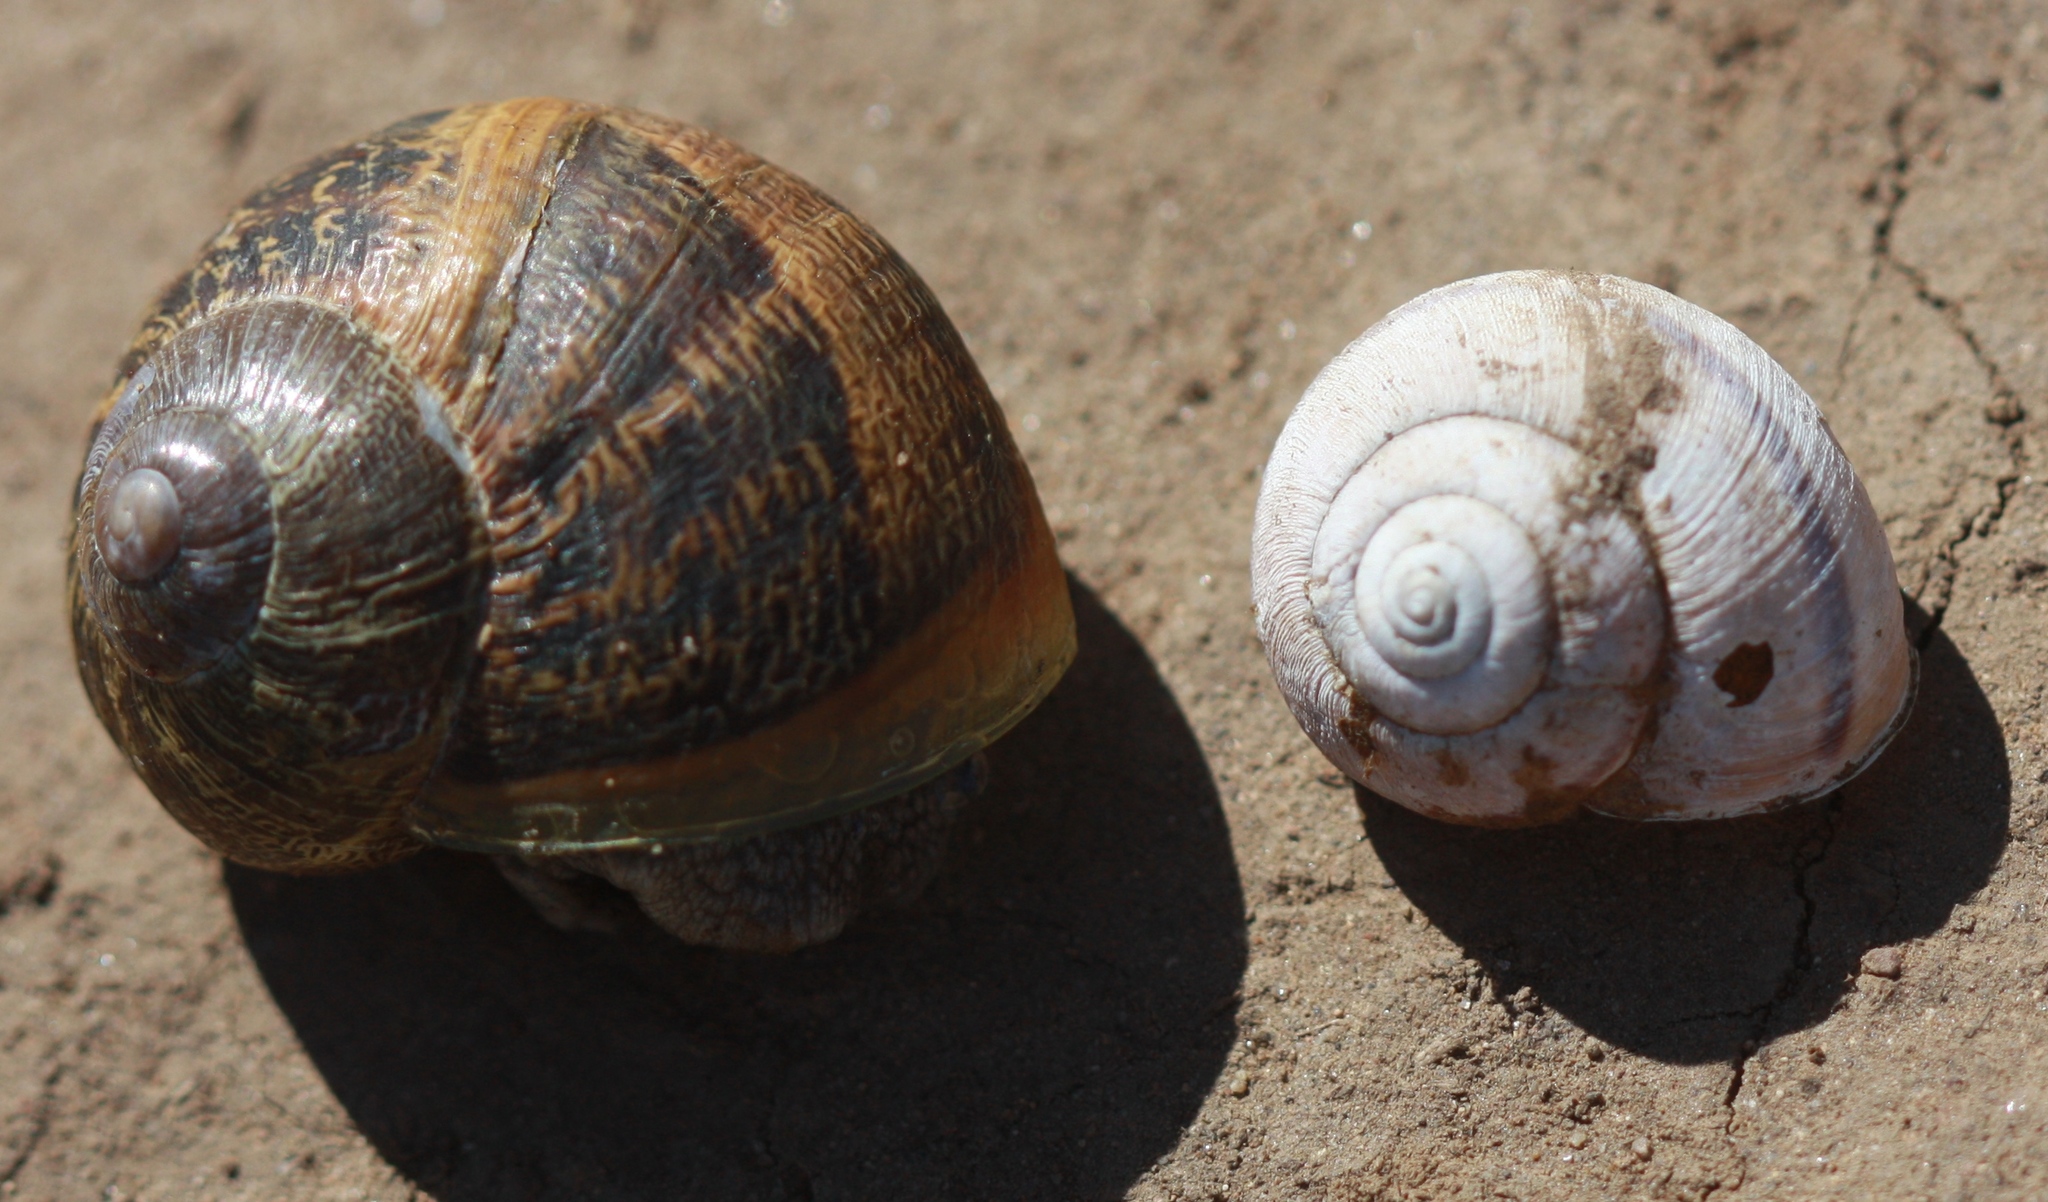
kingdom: Animalia
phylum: Mollusca
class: Gastropoda
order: Stylommatophora
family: Xanthonychidae
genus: Helminthoglypta
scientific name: Helminthoglypta nickliniana
